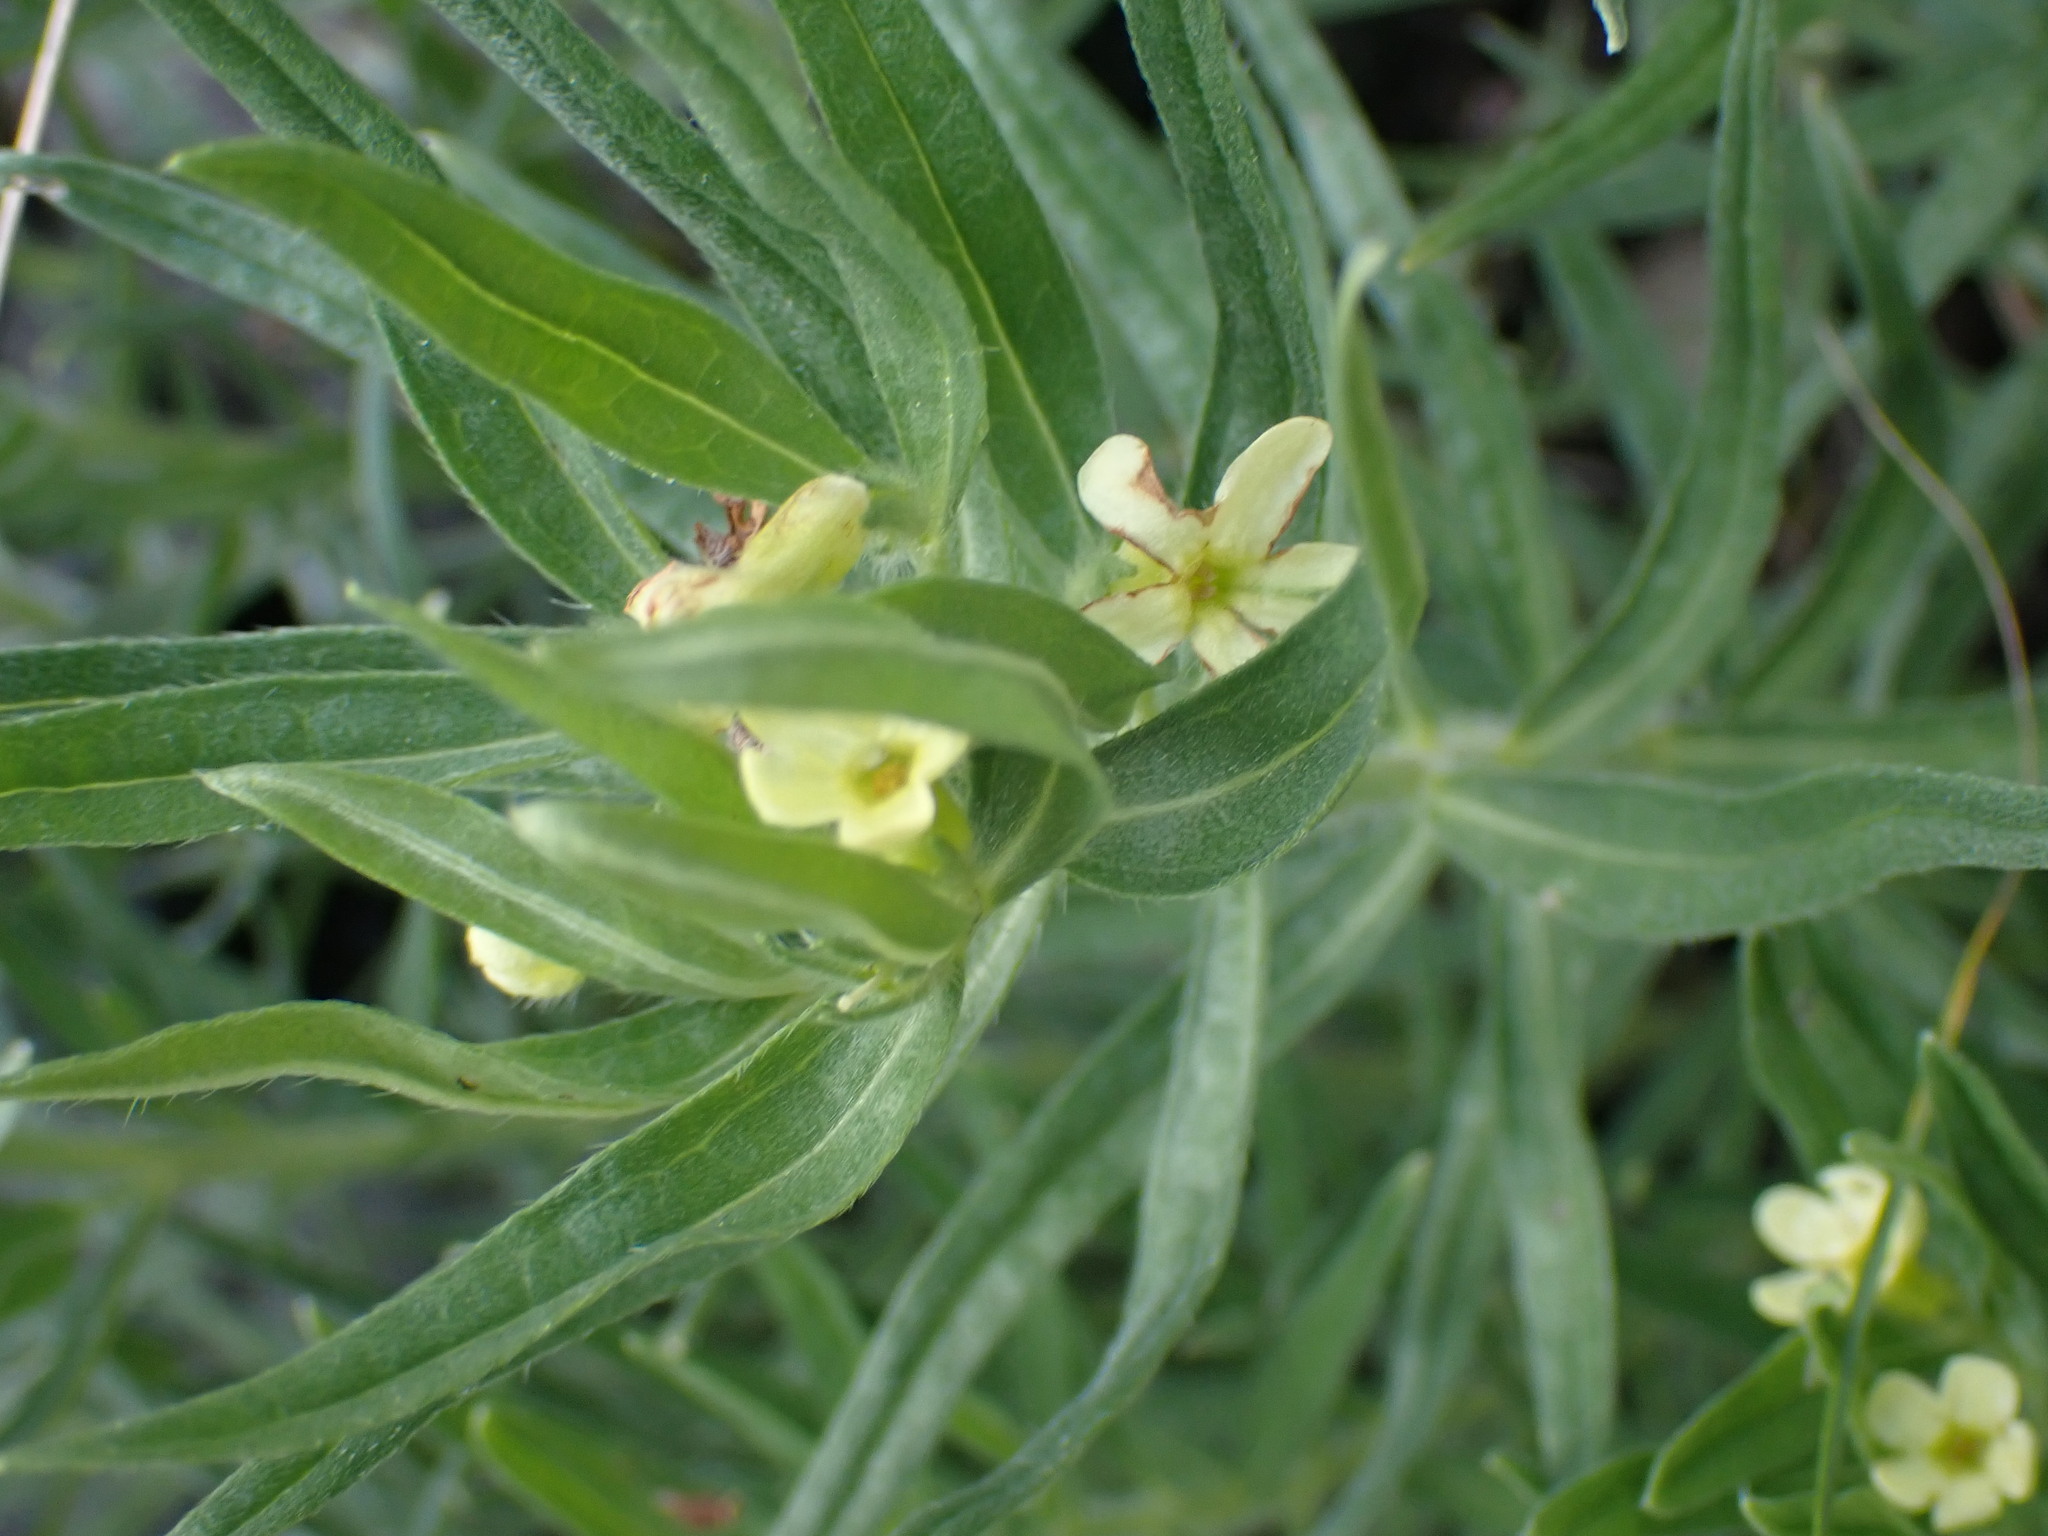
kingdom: Plantae
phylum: Tracheophyta
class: Magnoliopsida
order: Boraginales
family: Boraginaceae
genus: Lithospermum
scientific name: Lithospermum ruderale
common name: Western gromwell
